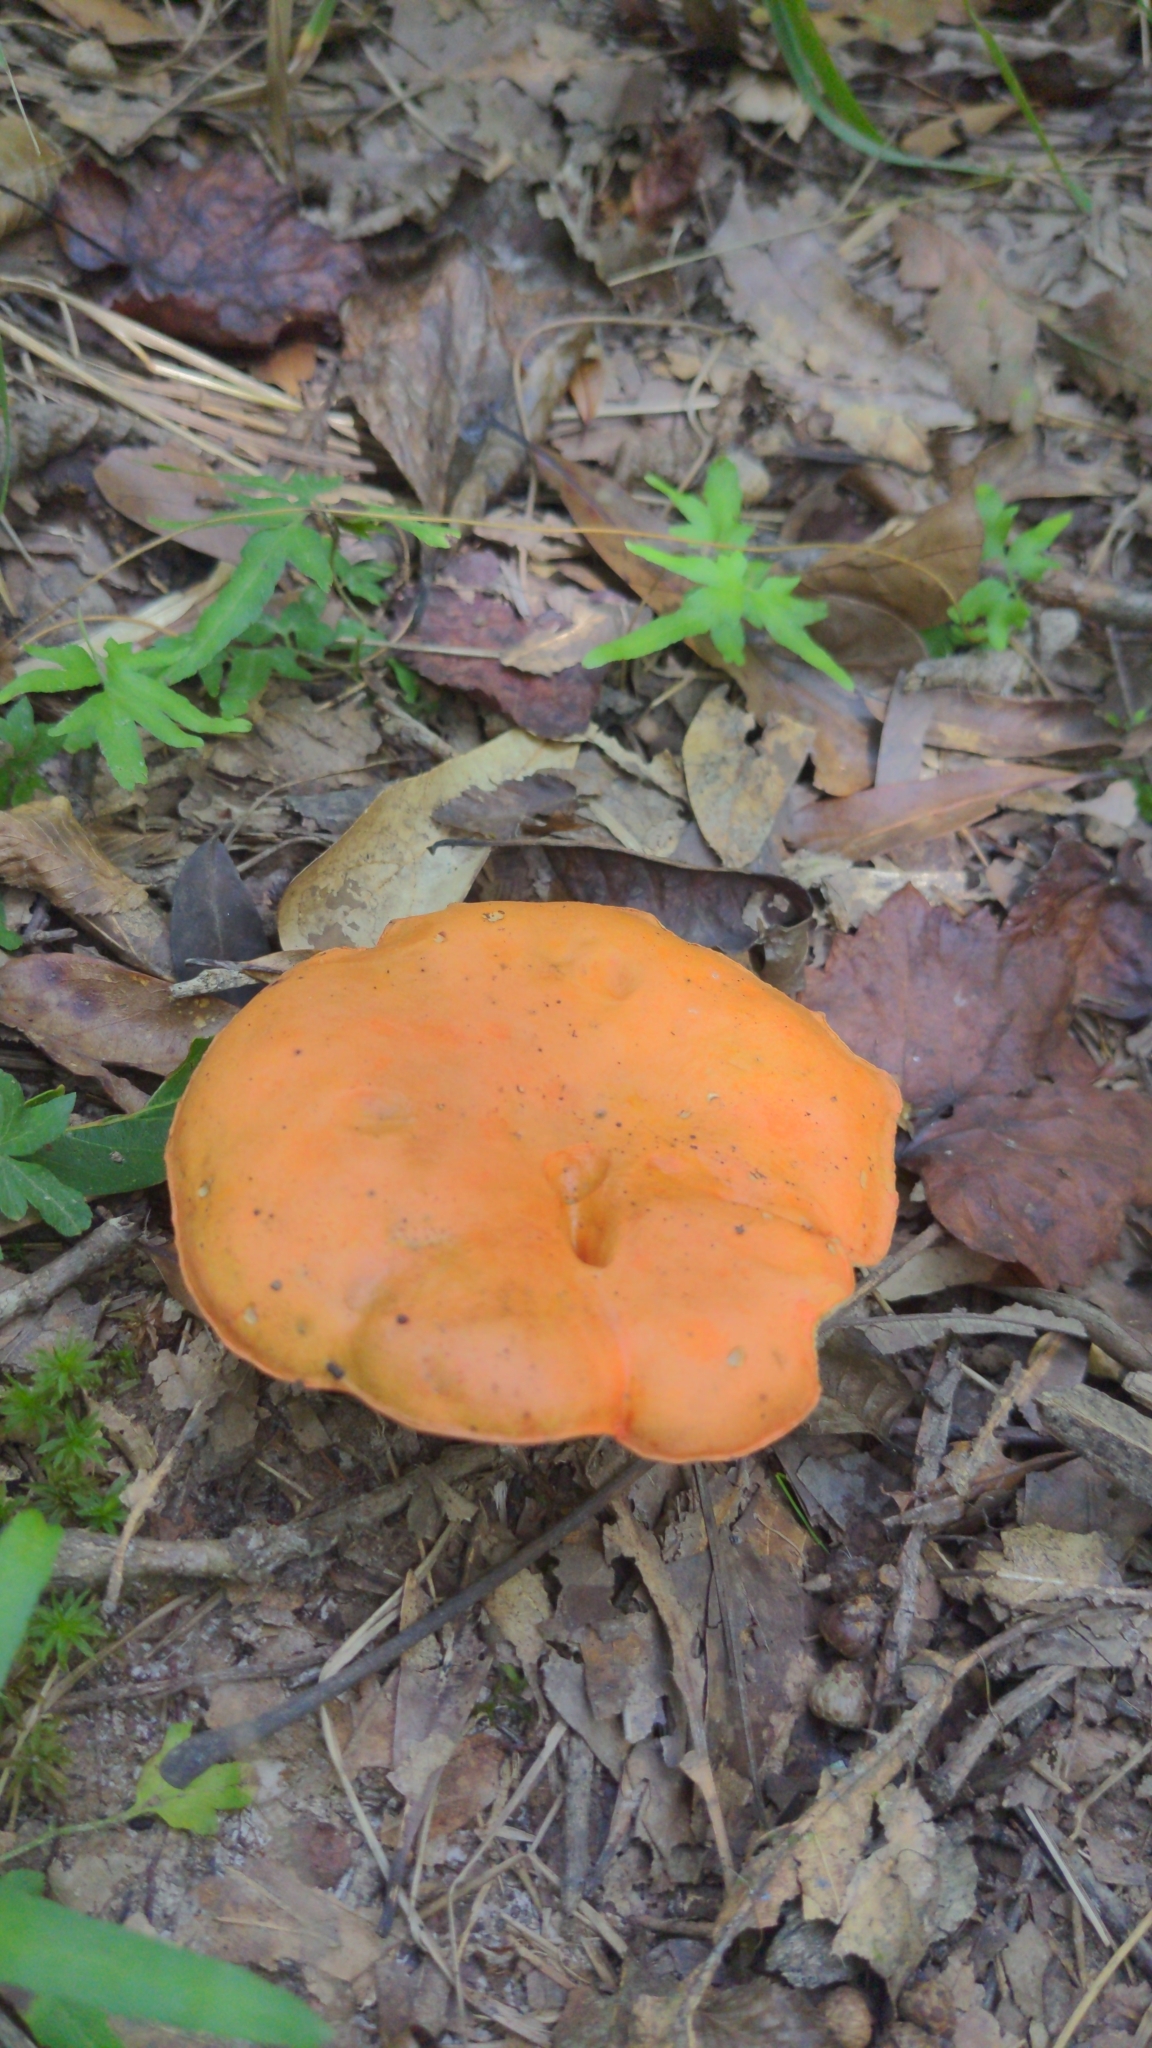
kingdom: Fungi
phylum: Basidiomycota
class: Agaricomycetes
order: Boletales
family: Boletaceae
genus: Tylopilus
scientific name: Tylopilus balloui
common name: Burnt-orange bolete
